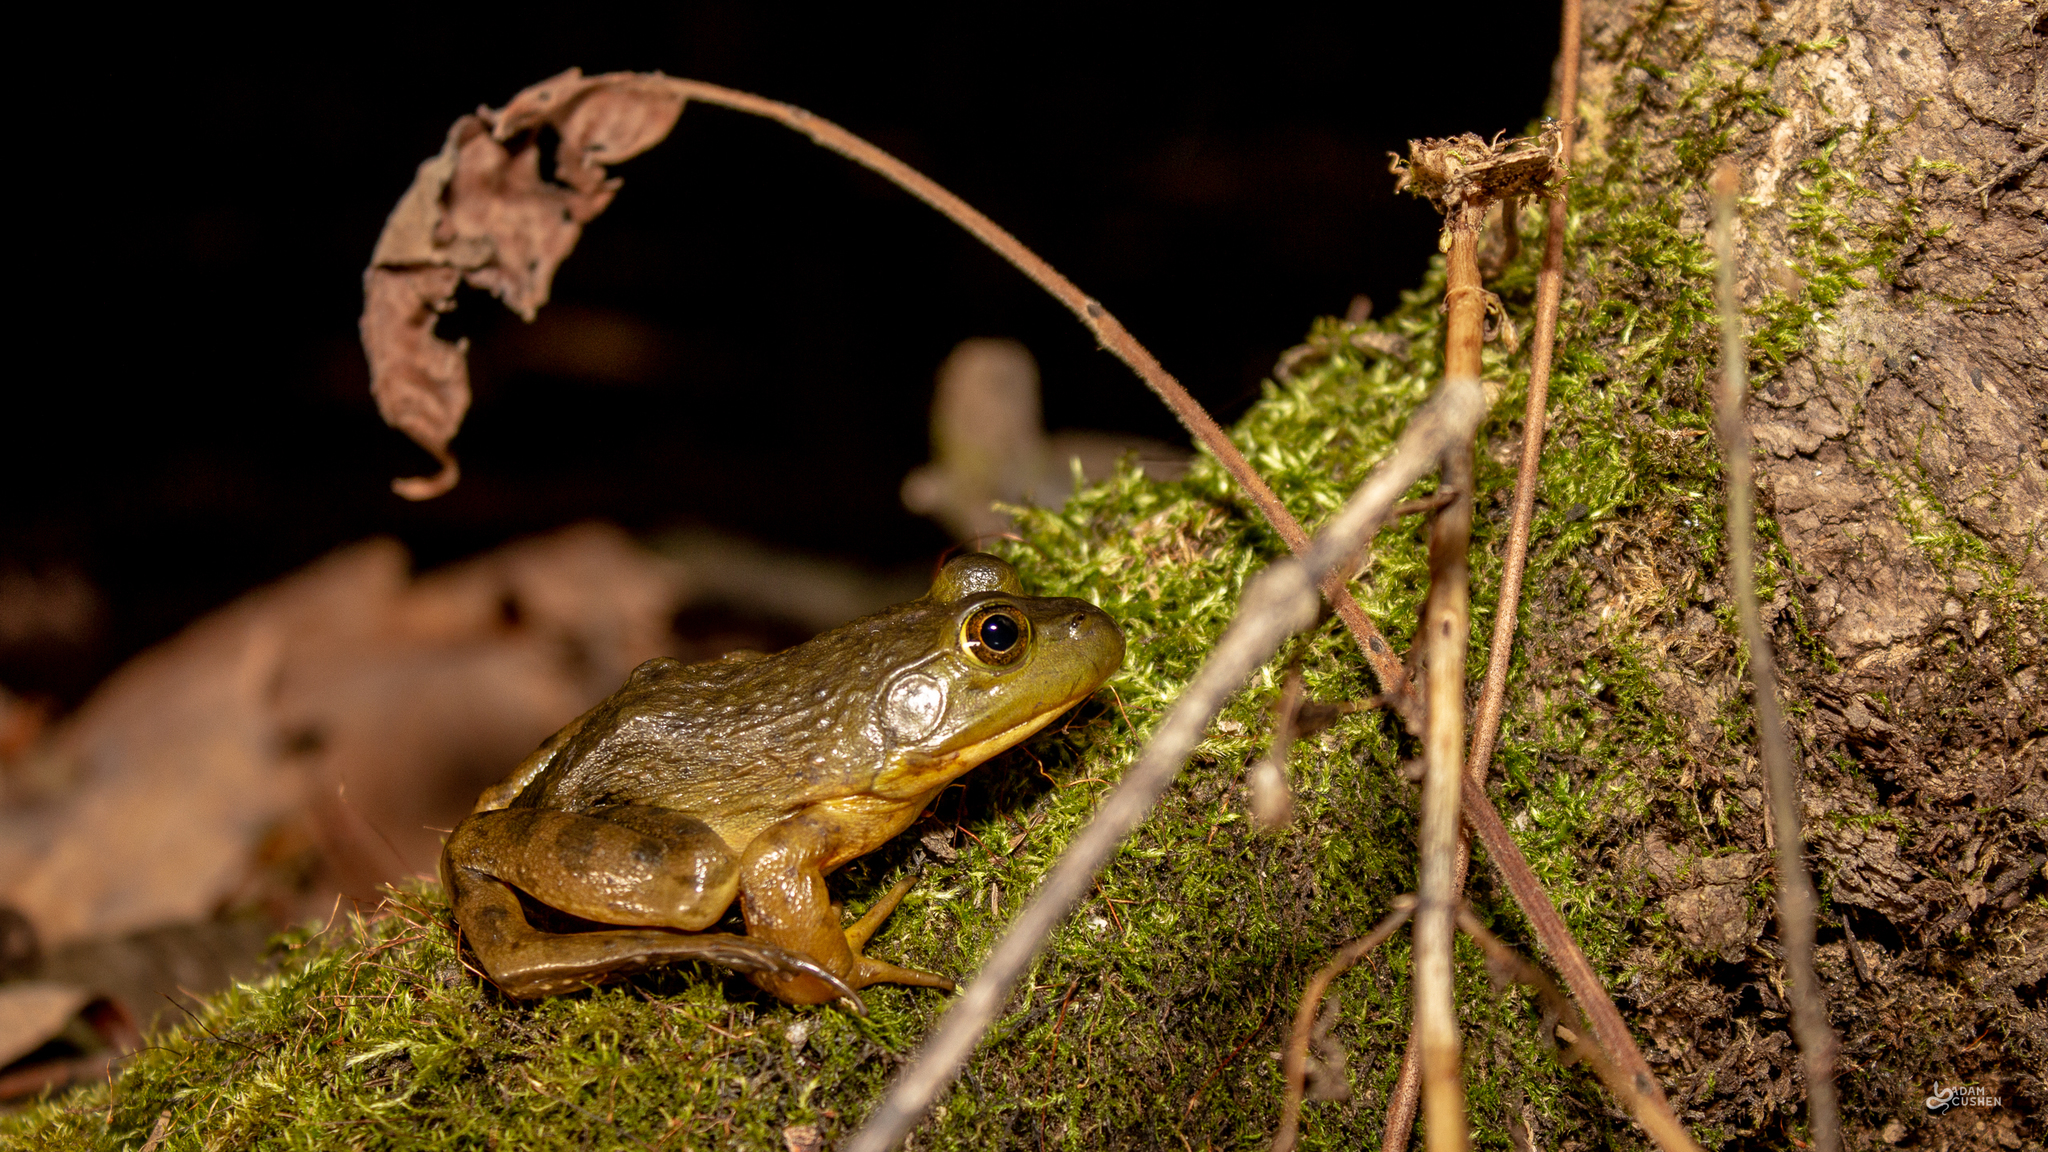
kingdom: Animalia
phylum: Chordata
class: Amphibia
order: Anura
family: Ranidae
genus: Lithobates
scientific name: Lithobates catesbeianus
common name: American bullfrog
